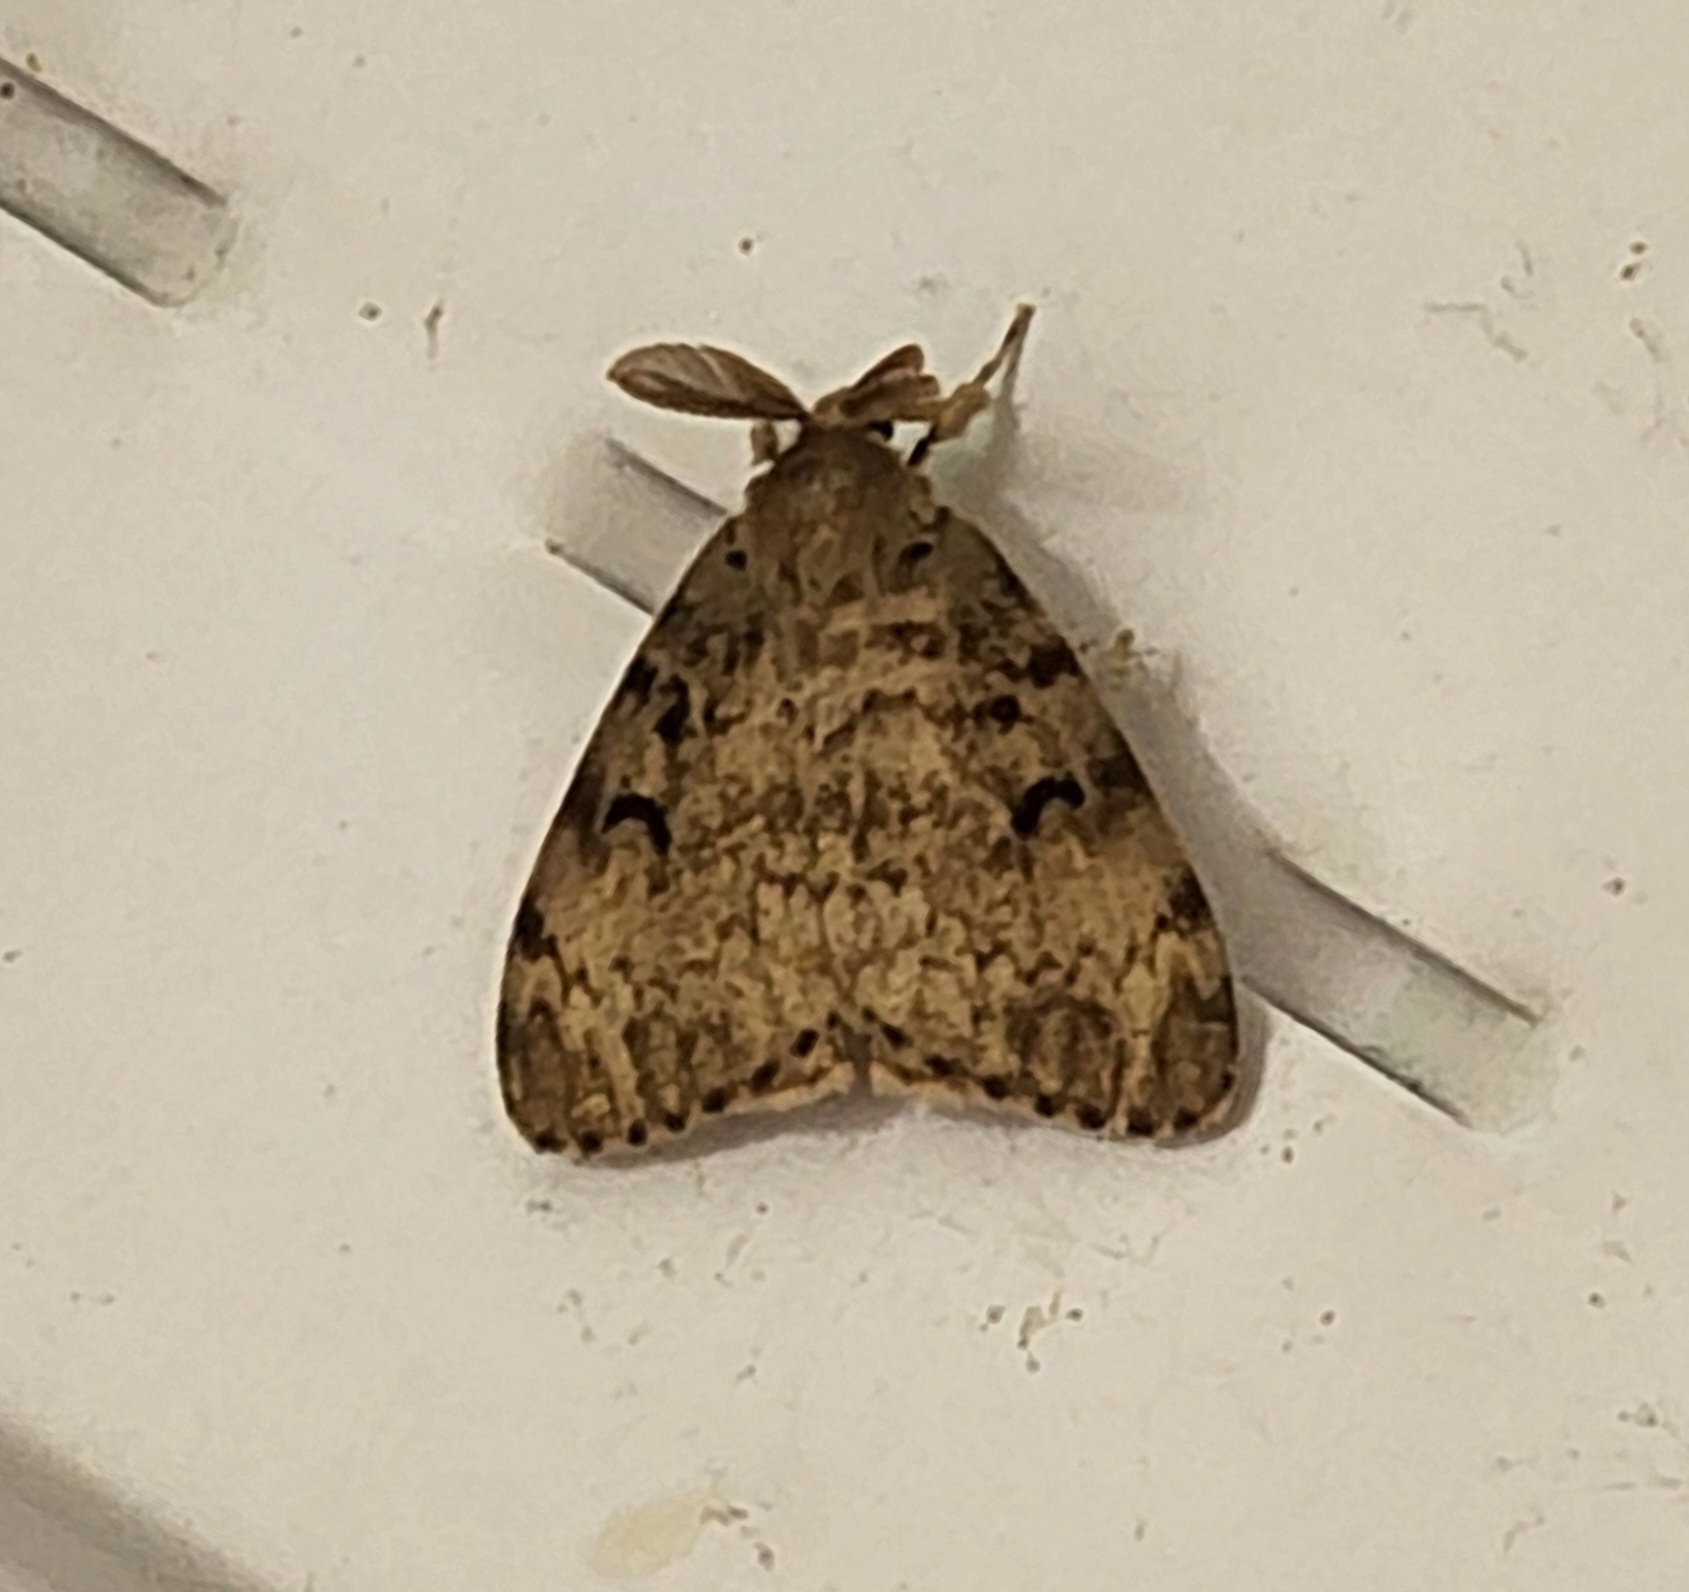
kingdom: Animalia
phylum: Arthropoda
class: Insecta
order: Lepidoptera
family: Erebidae
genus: Lymantria
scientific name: Lymantria dispar
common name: Gypsy moth
